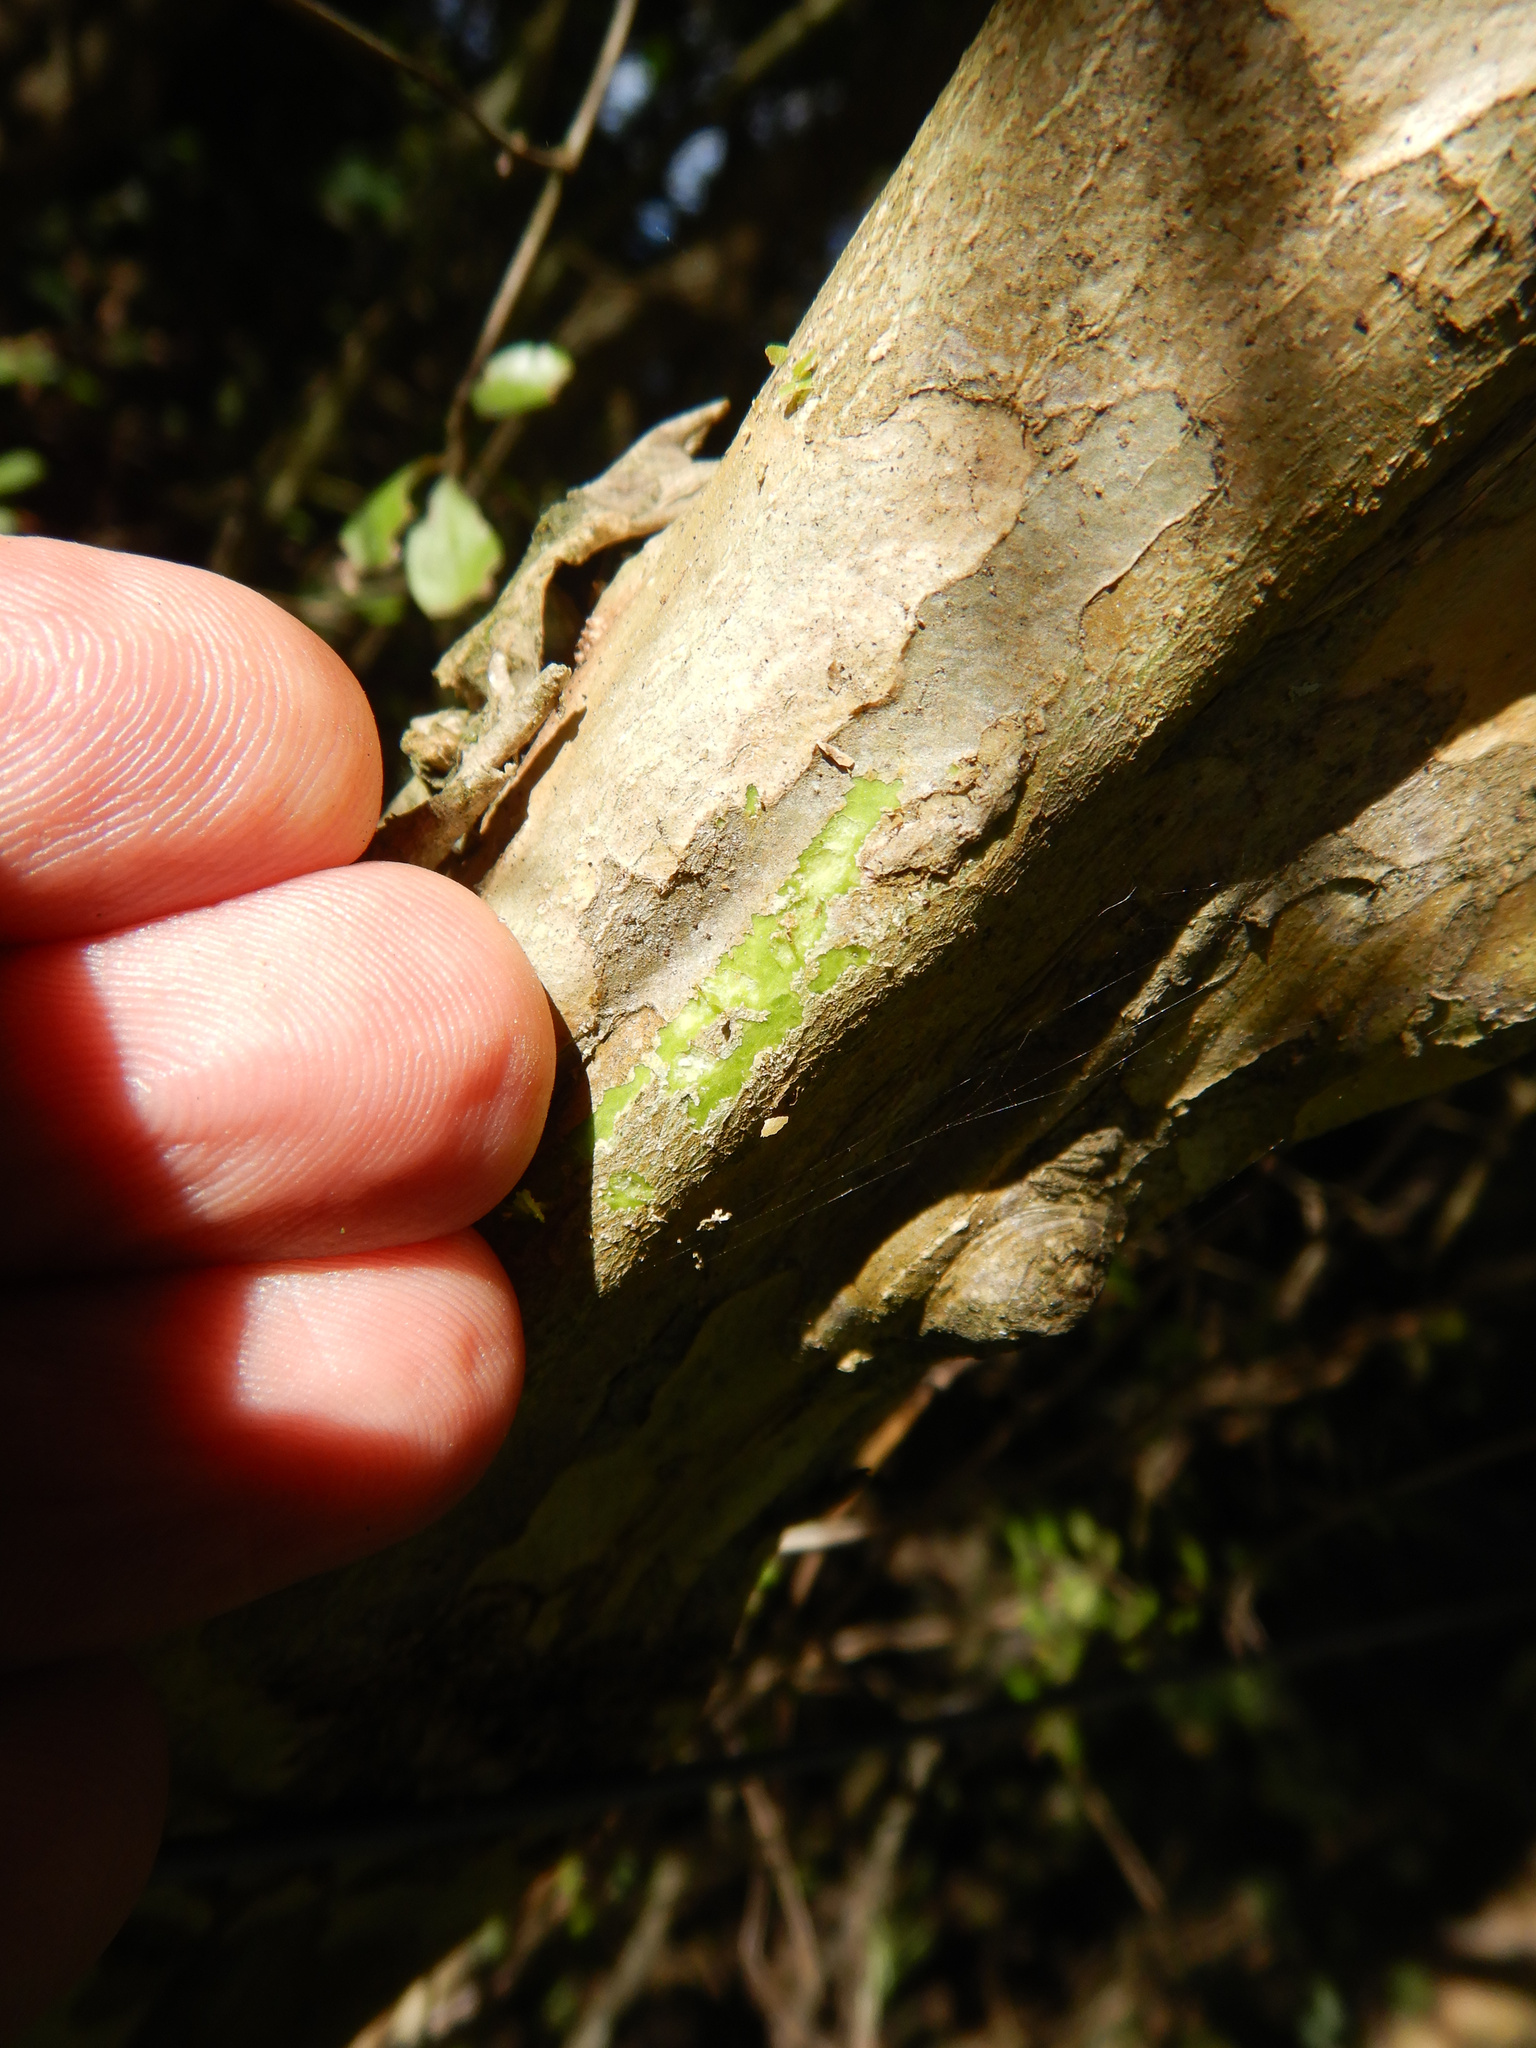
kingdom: Plantae
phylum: Tracheophyta
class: Magnoliopsida
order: Gentianales
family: Rubiaceae
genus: Coprosma
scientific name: Coprosma crassifolia
